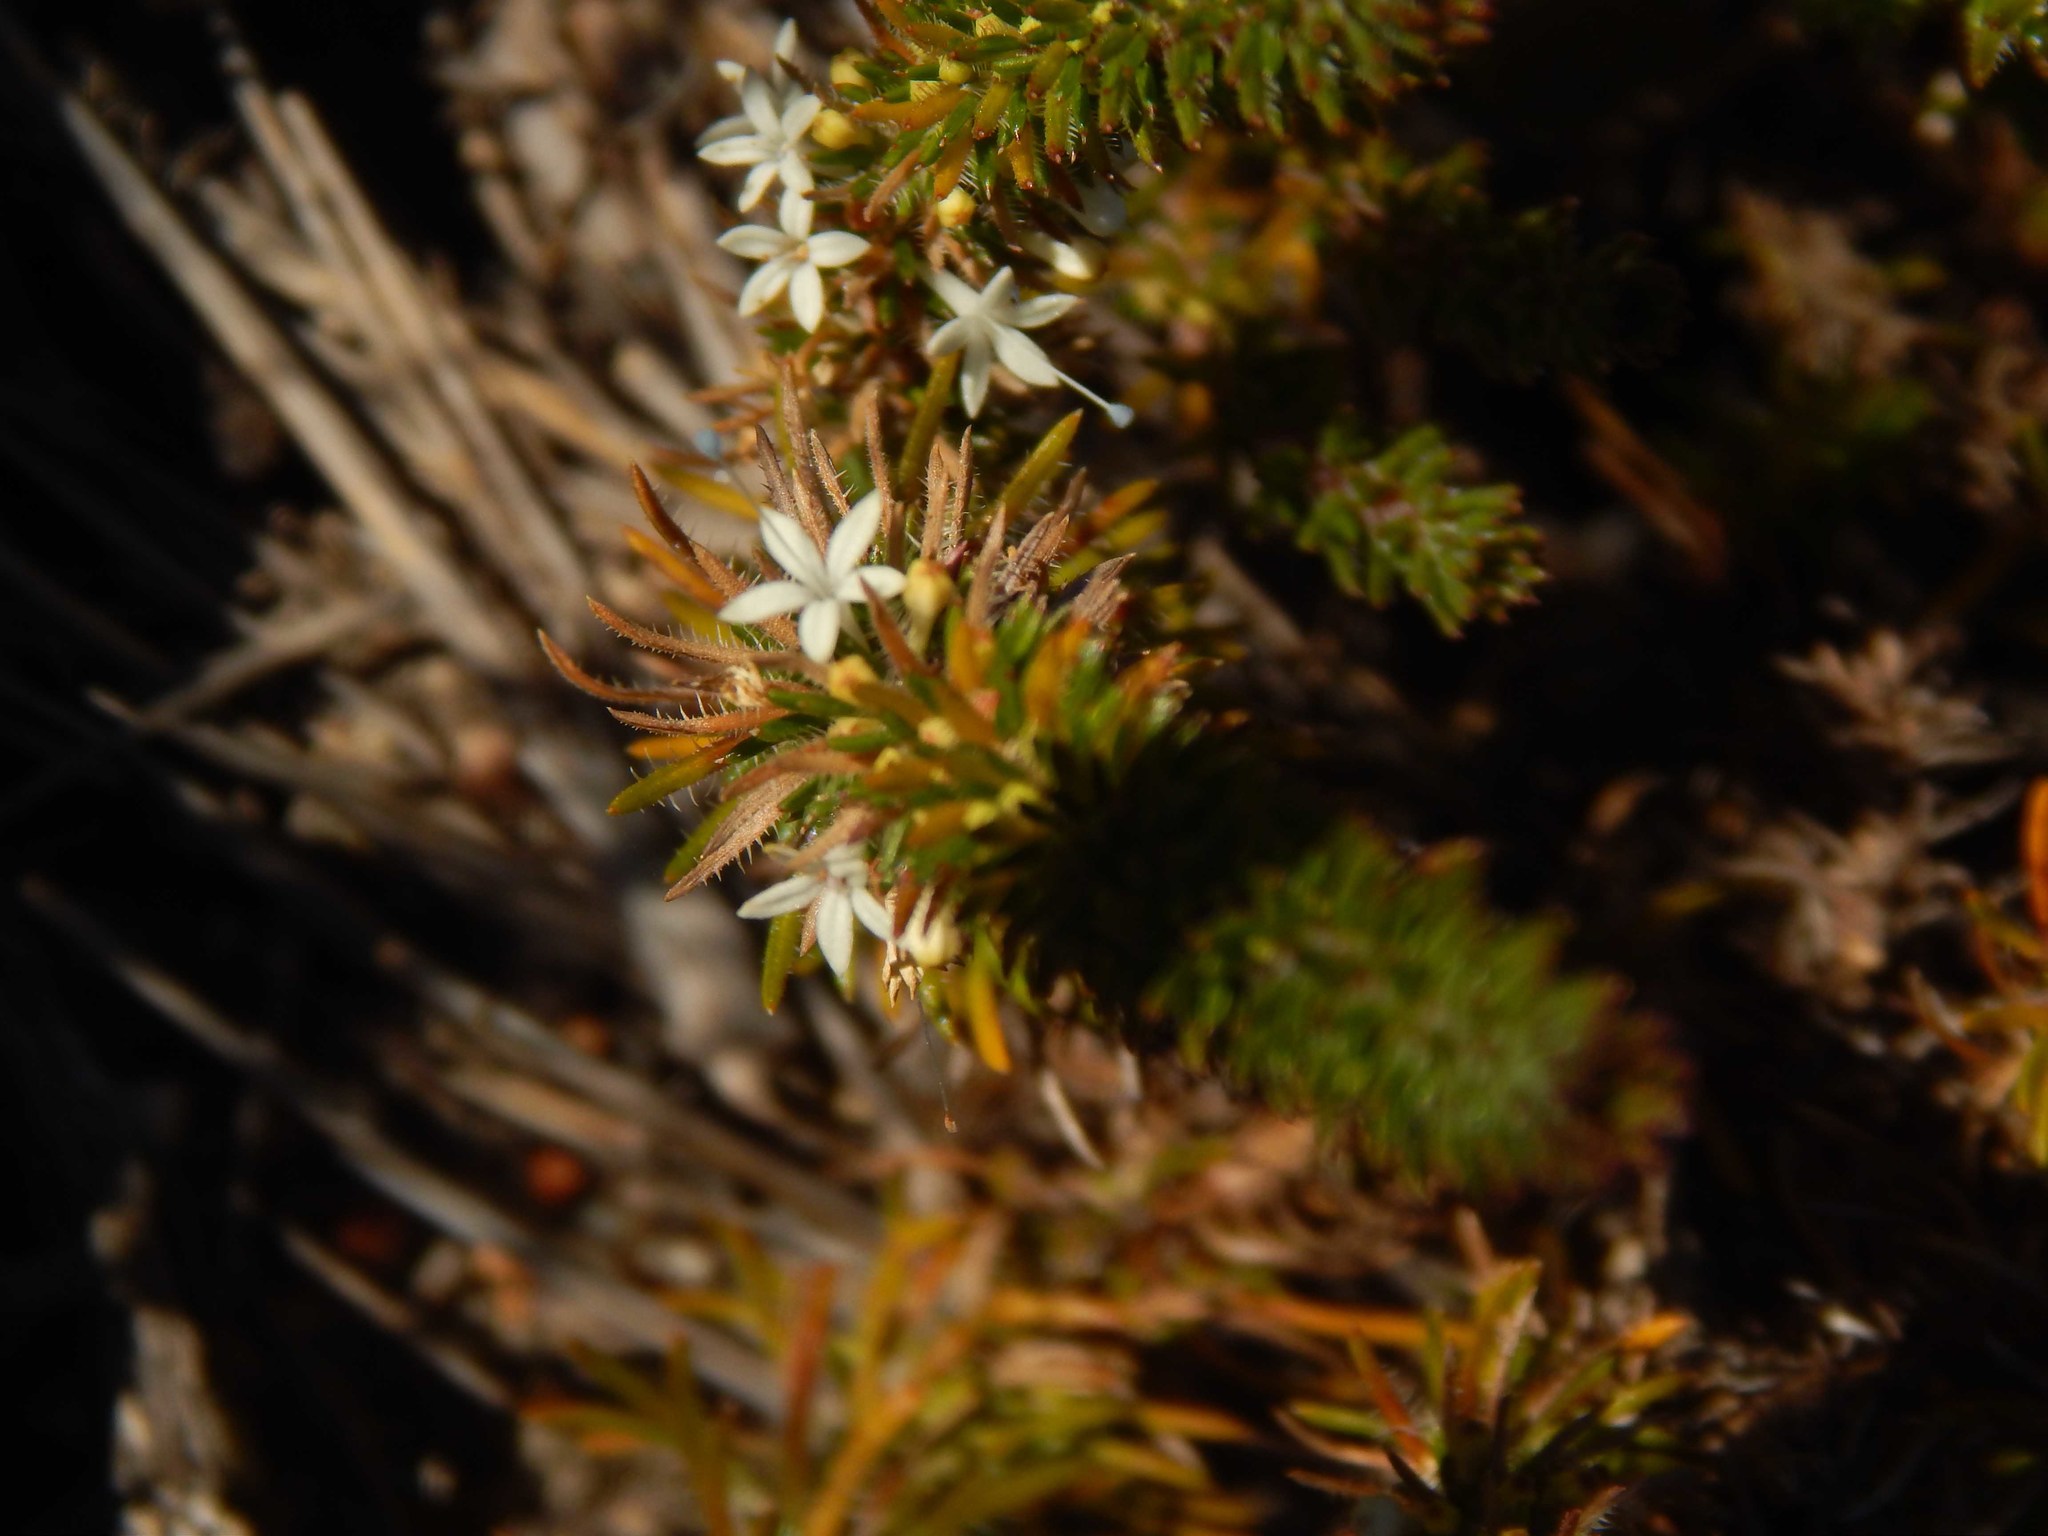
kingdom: Plantae
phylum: Tracheophyta
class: Magnoliopsida
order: Asterales
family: Campanulaceae
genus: Merciera
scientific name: Merciera leptoloba
